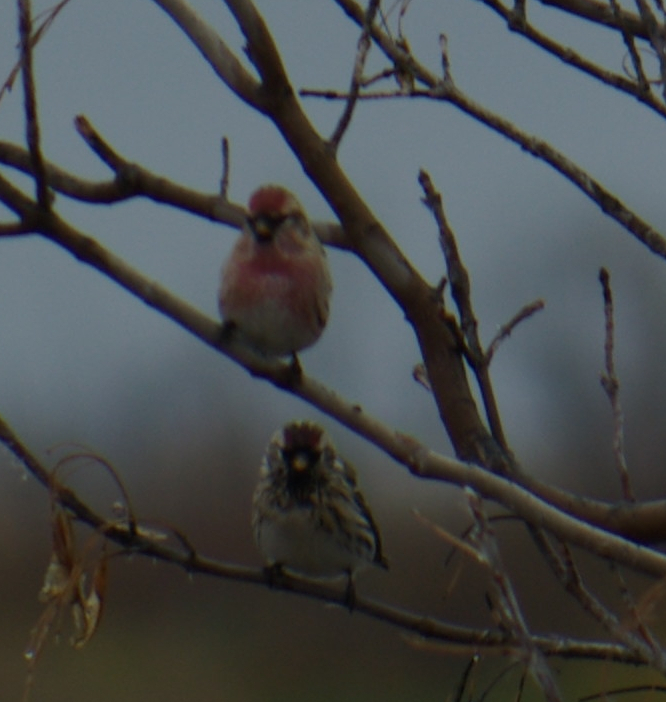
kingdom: Animalia
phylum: Chordata
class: Aves
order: Passeriformes
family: Fringillidae
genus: Acanthis
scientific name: Acanthis flammea
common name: Common redpoll
